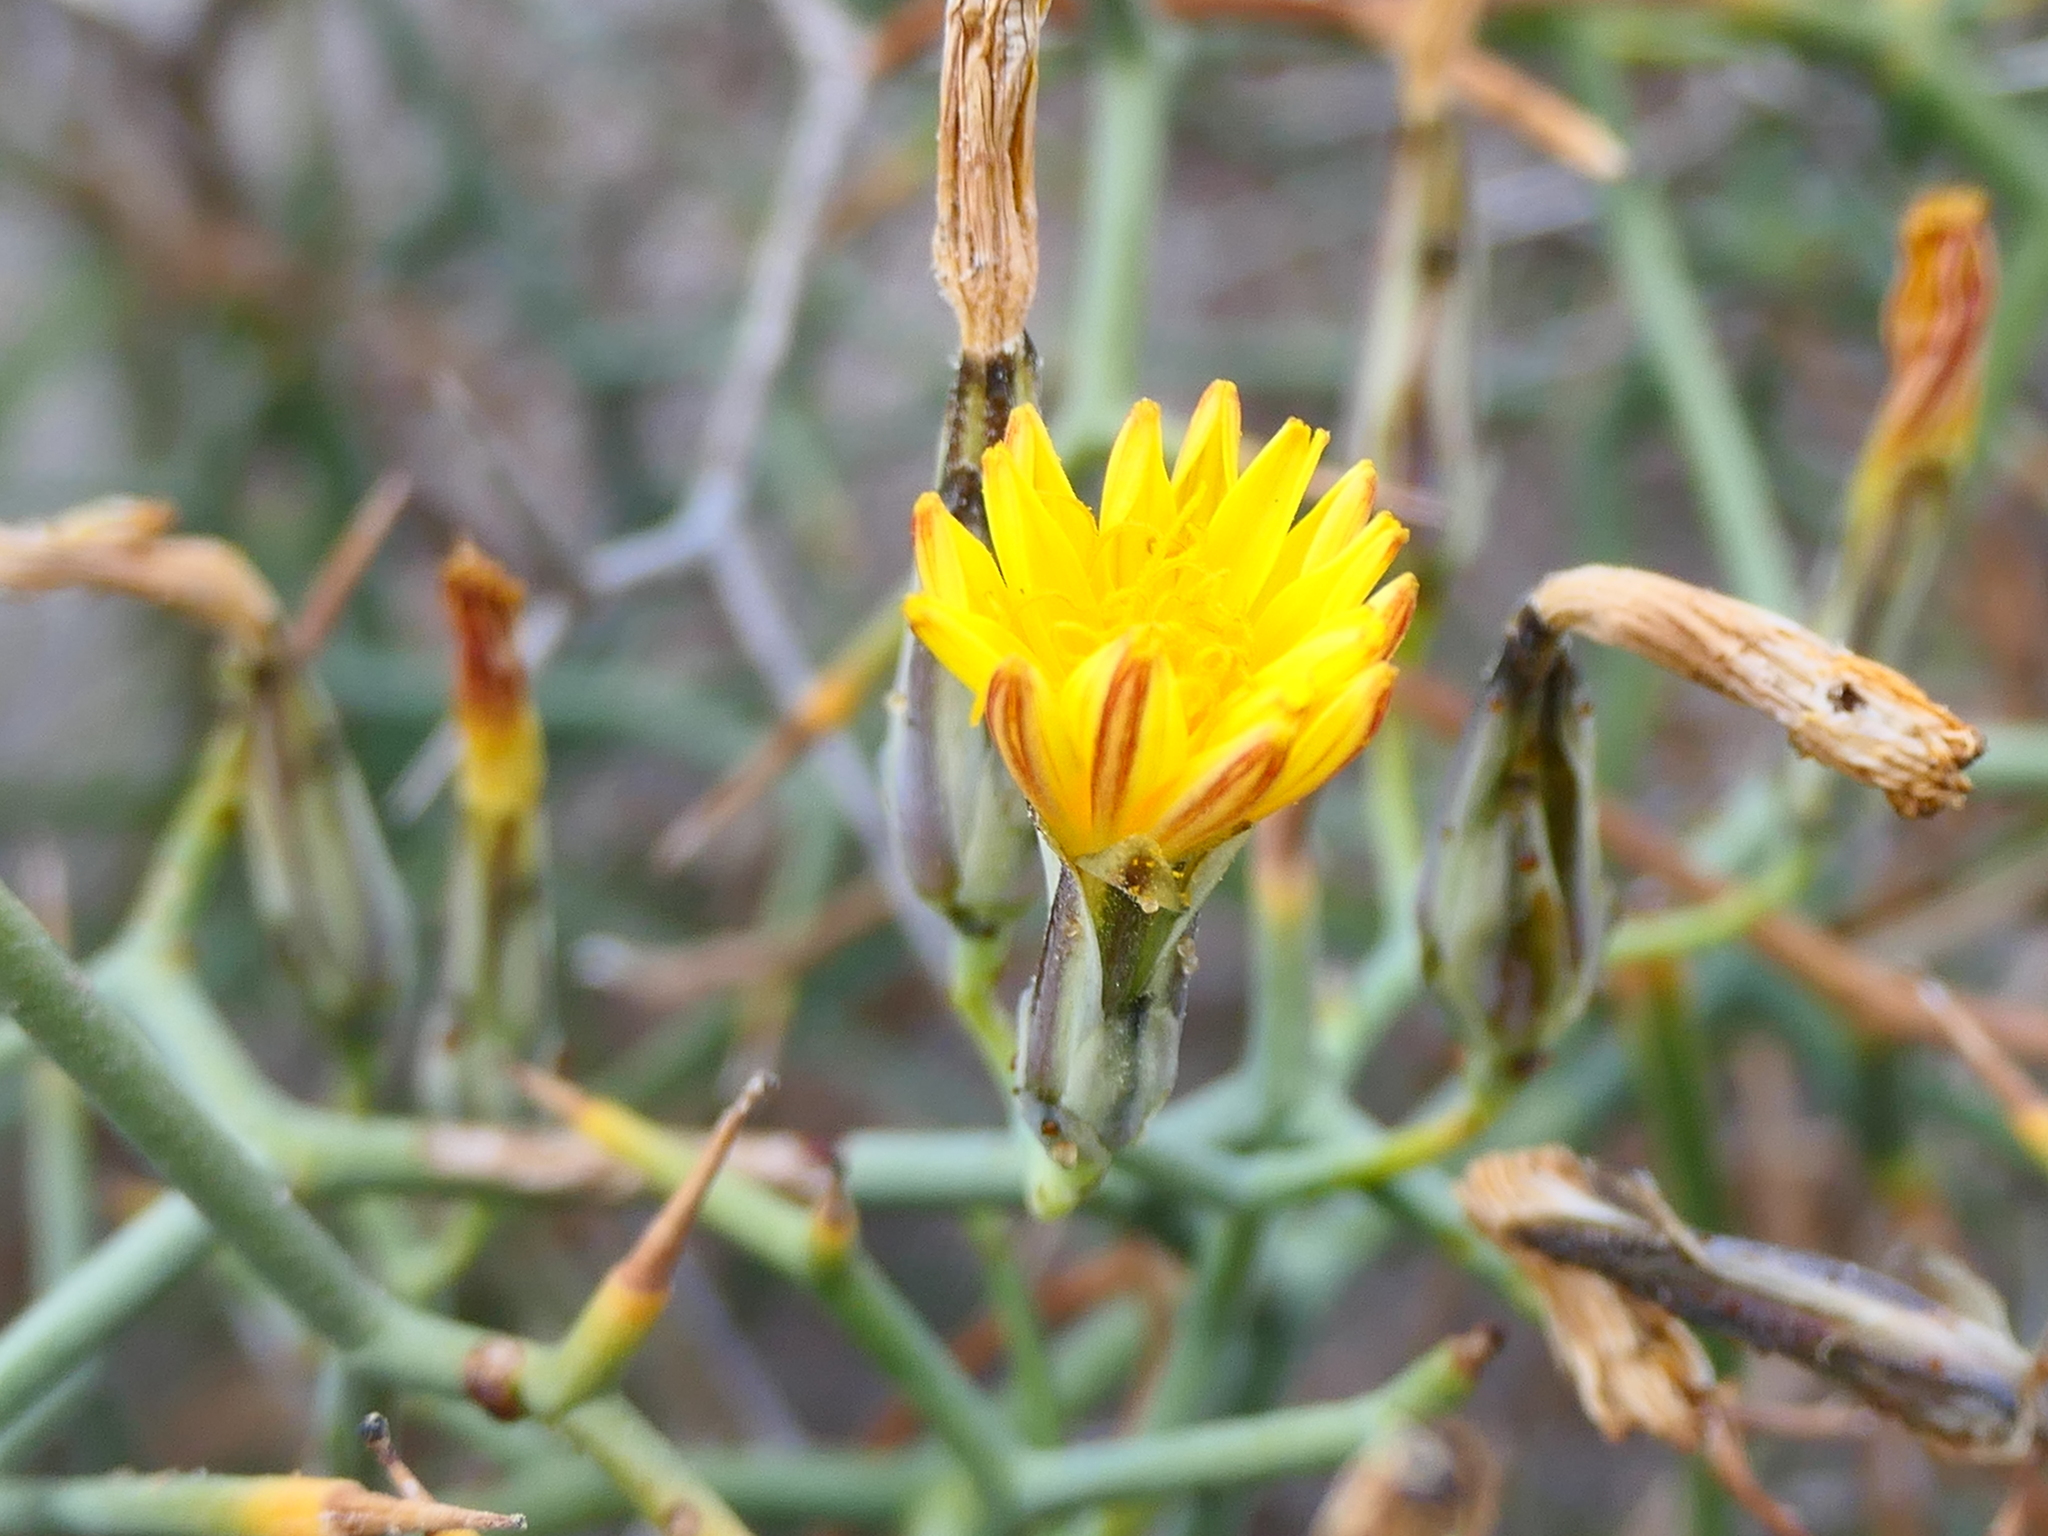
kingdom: Plantae
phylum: Tracheophyta
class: Magnoliopsida
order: Asterales
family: Asteraceae
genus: Launaea
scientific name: Launaea arborescens
